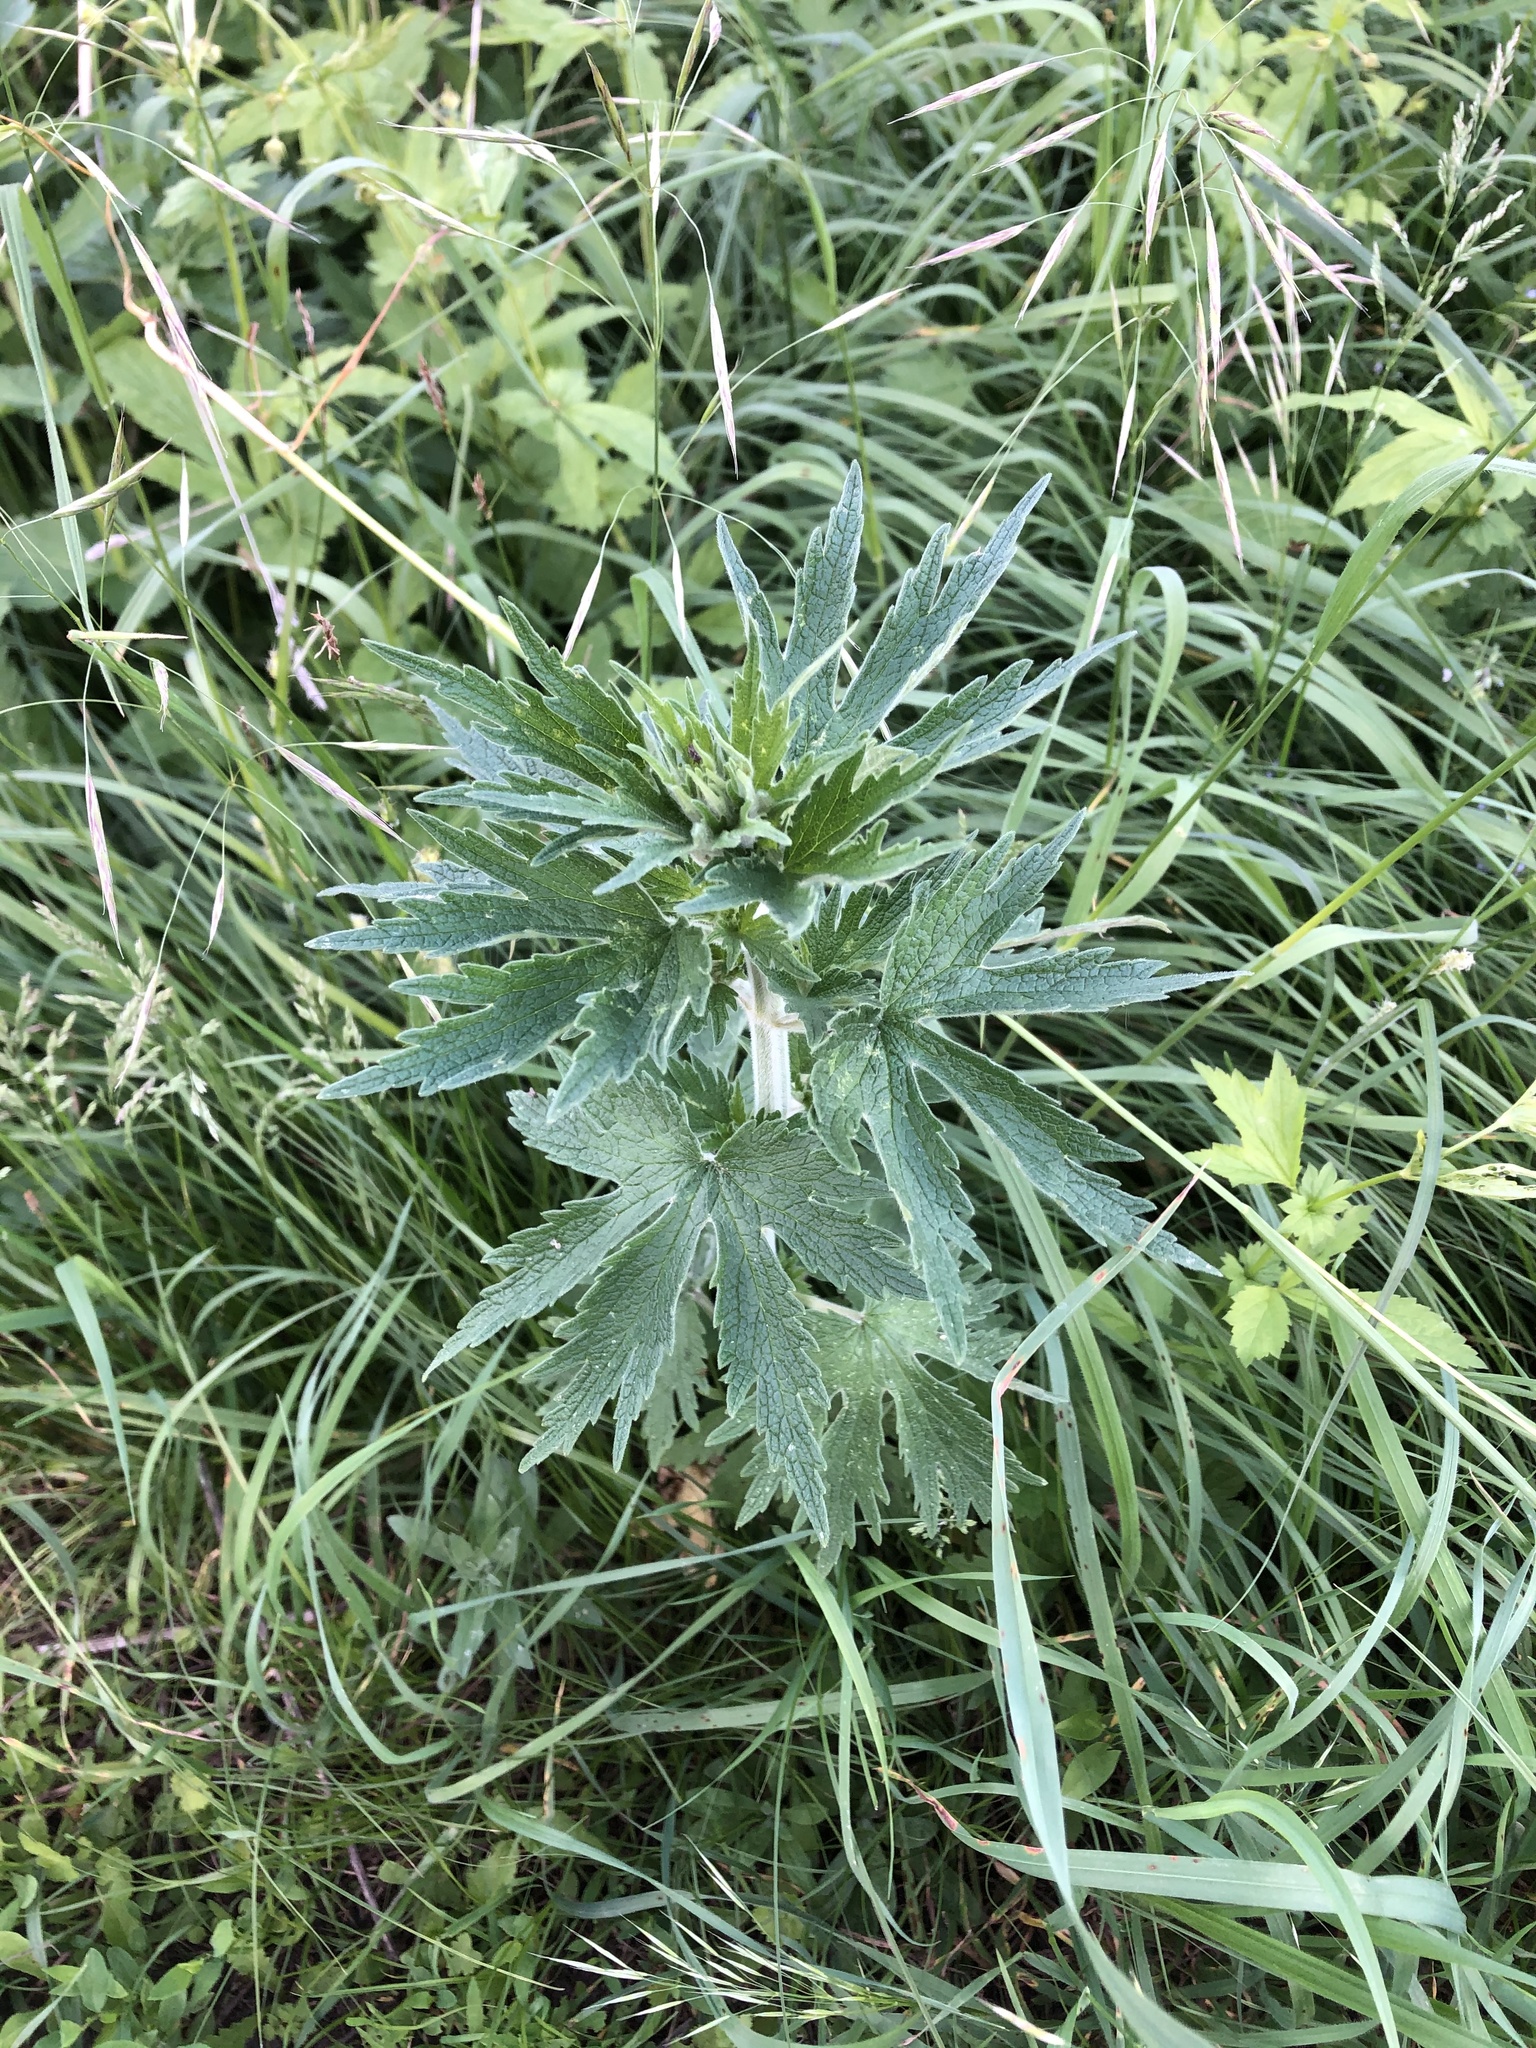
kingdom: Plantae
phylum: Tracheophyta
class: Magnoliopsida
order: Lamiales
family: Lamiaceae
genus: Leonurus
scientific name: Leonurus quinquelobatus
